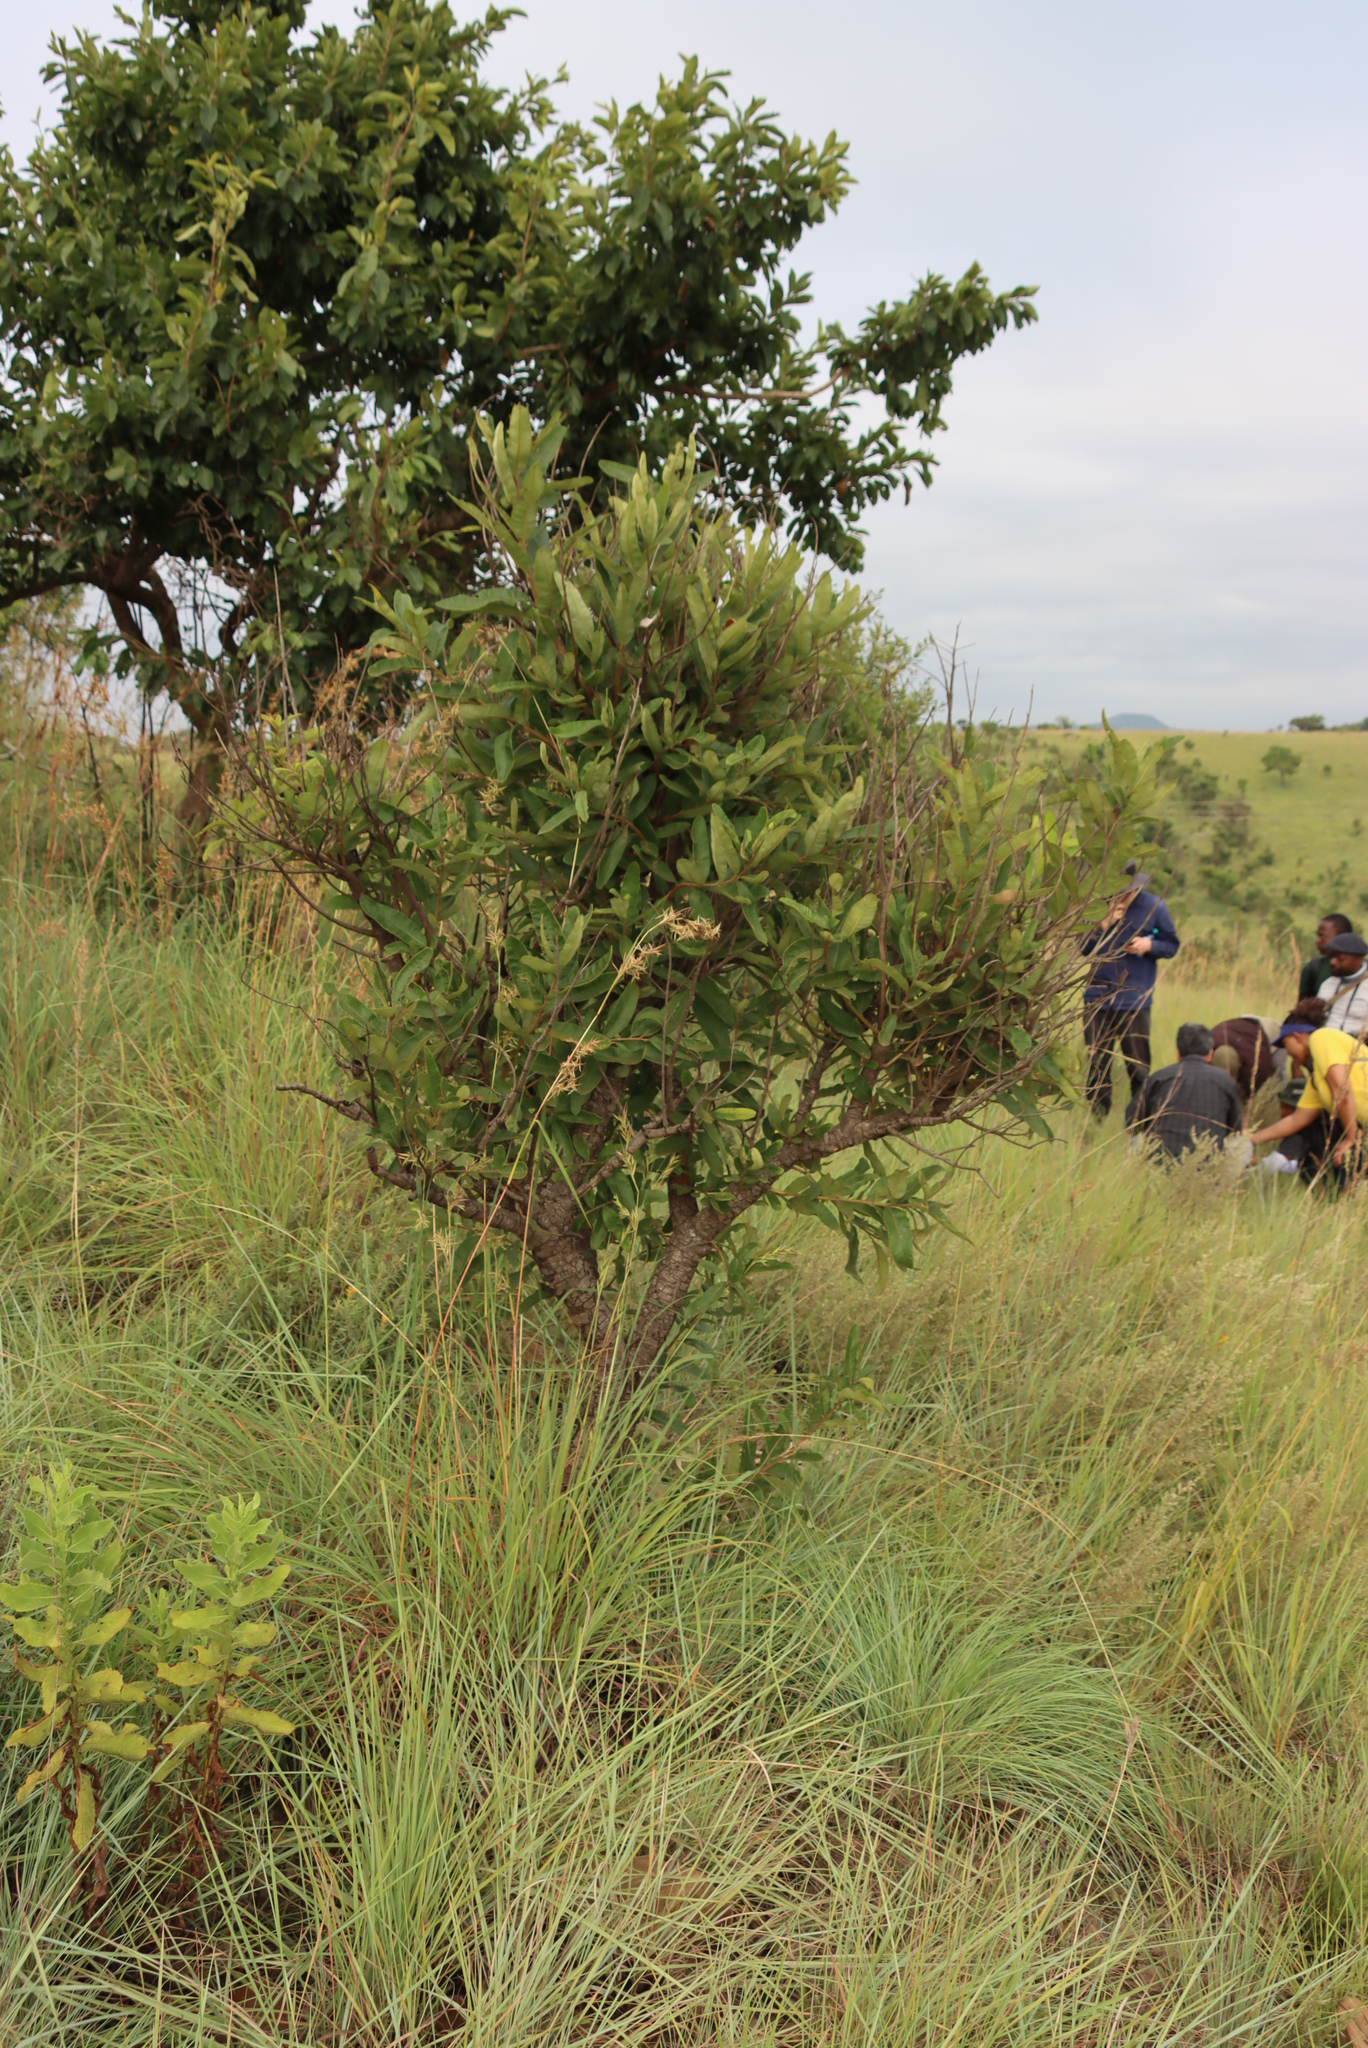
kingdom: Plantae
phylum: Tracheophyta
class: Magnoliopsida
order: Sapindales
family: Anacardiaceae
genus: Ozoroa
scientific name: Ozoroa paniculosa
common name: Bushveld ozoroa
